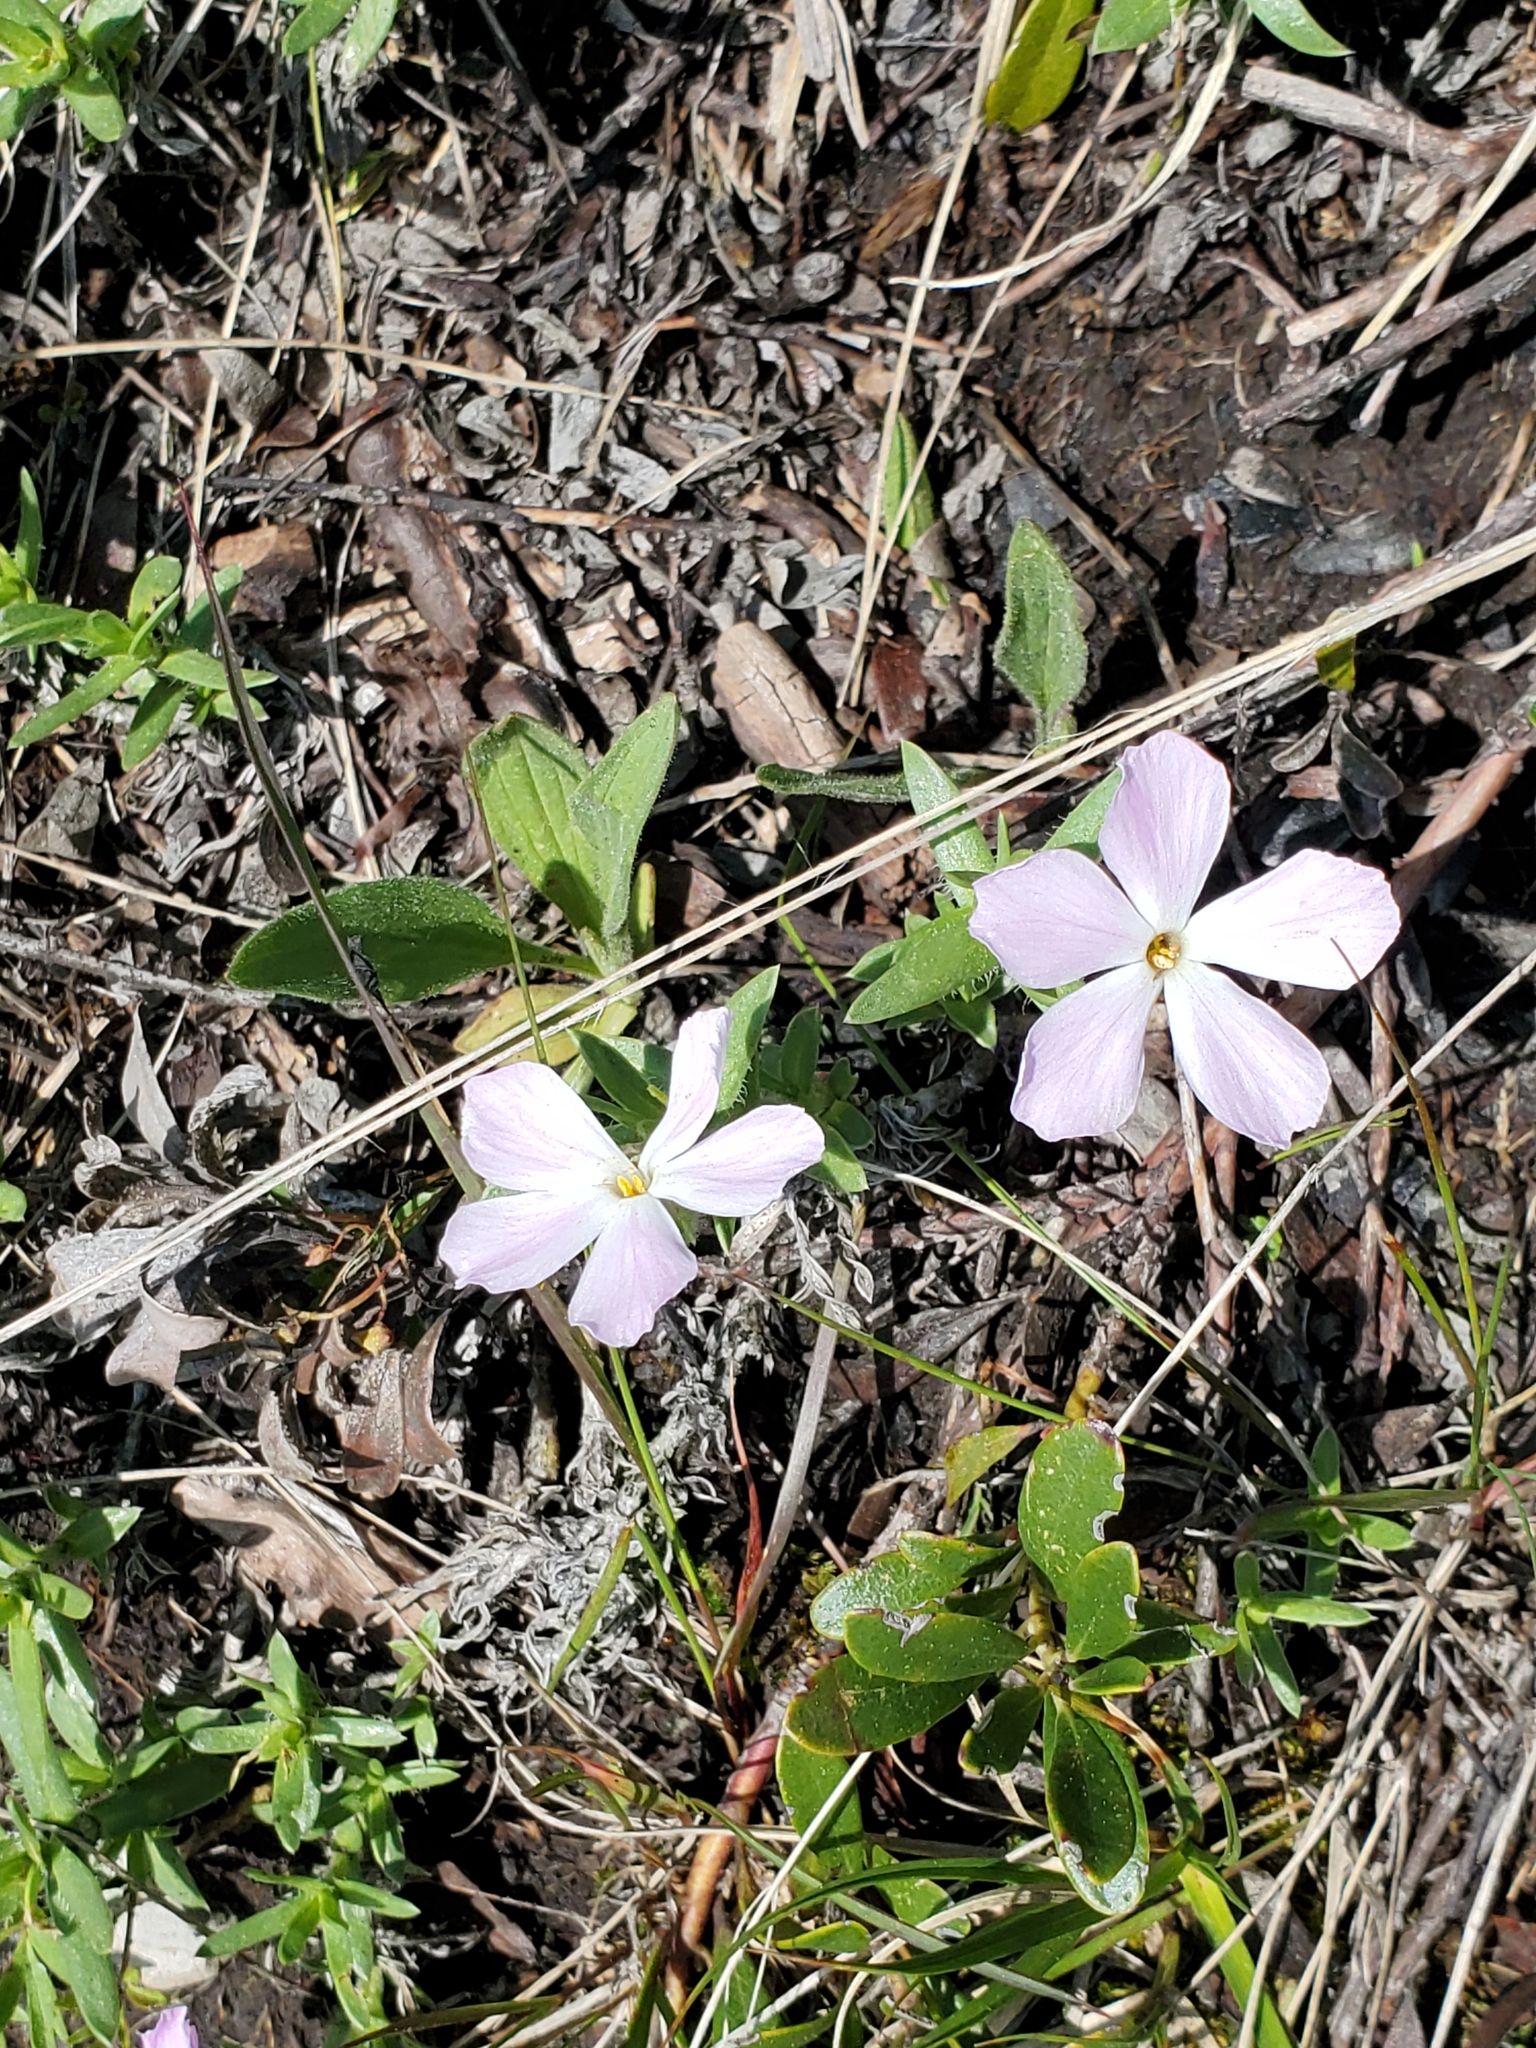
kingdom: Plantae
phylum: Tracheophyta
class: Magnoliopsida
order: Ericales
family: Polemoniaceae
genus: Phlox
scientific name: Phlox alyssifolia
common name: Blue phlox
